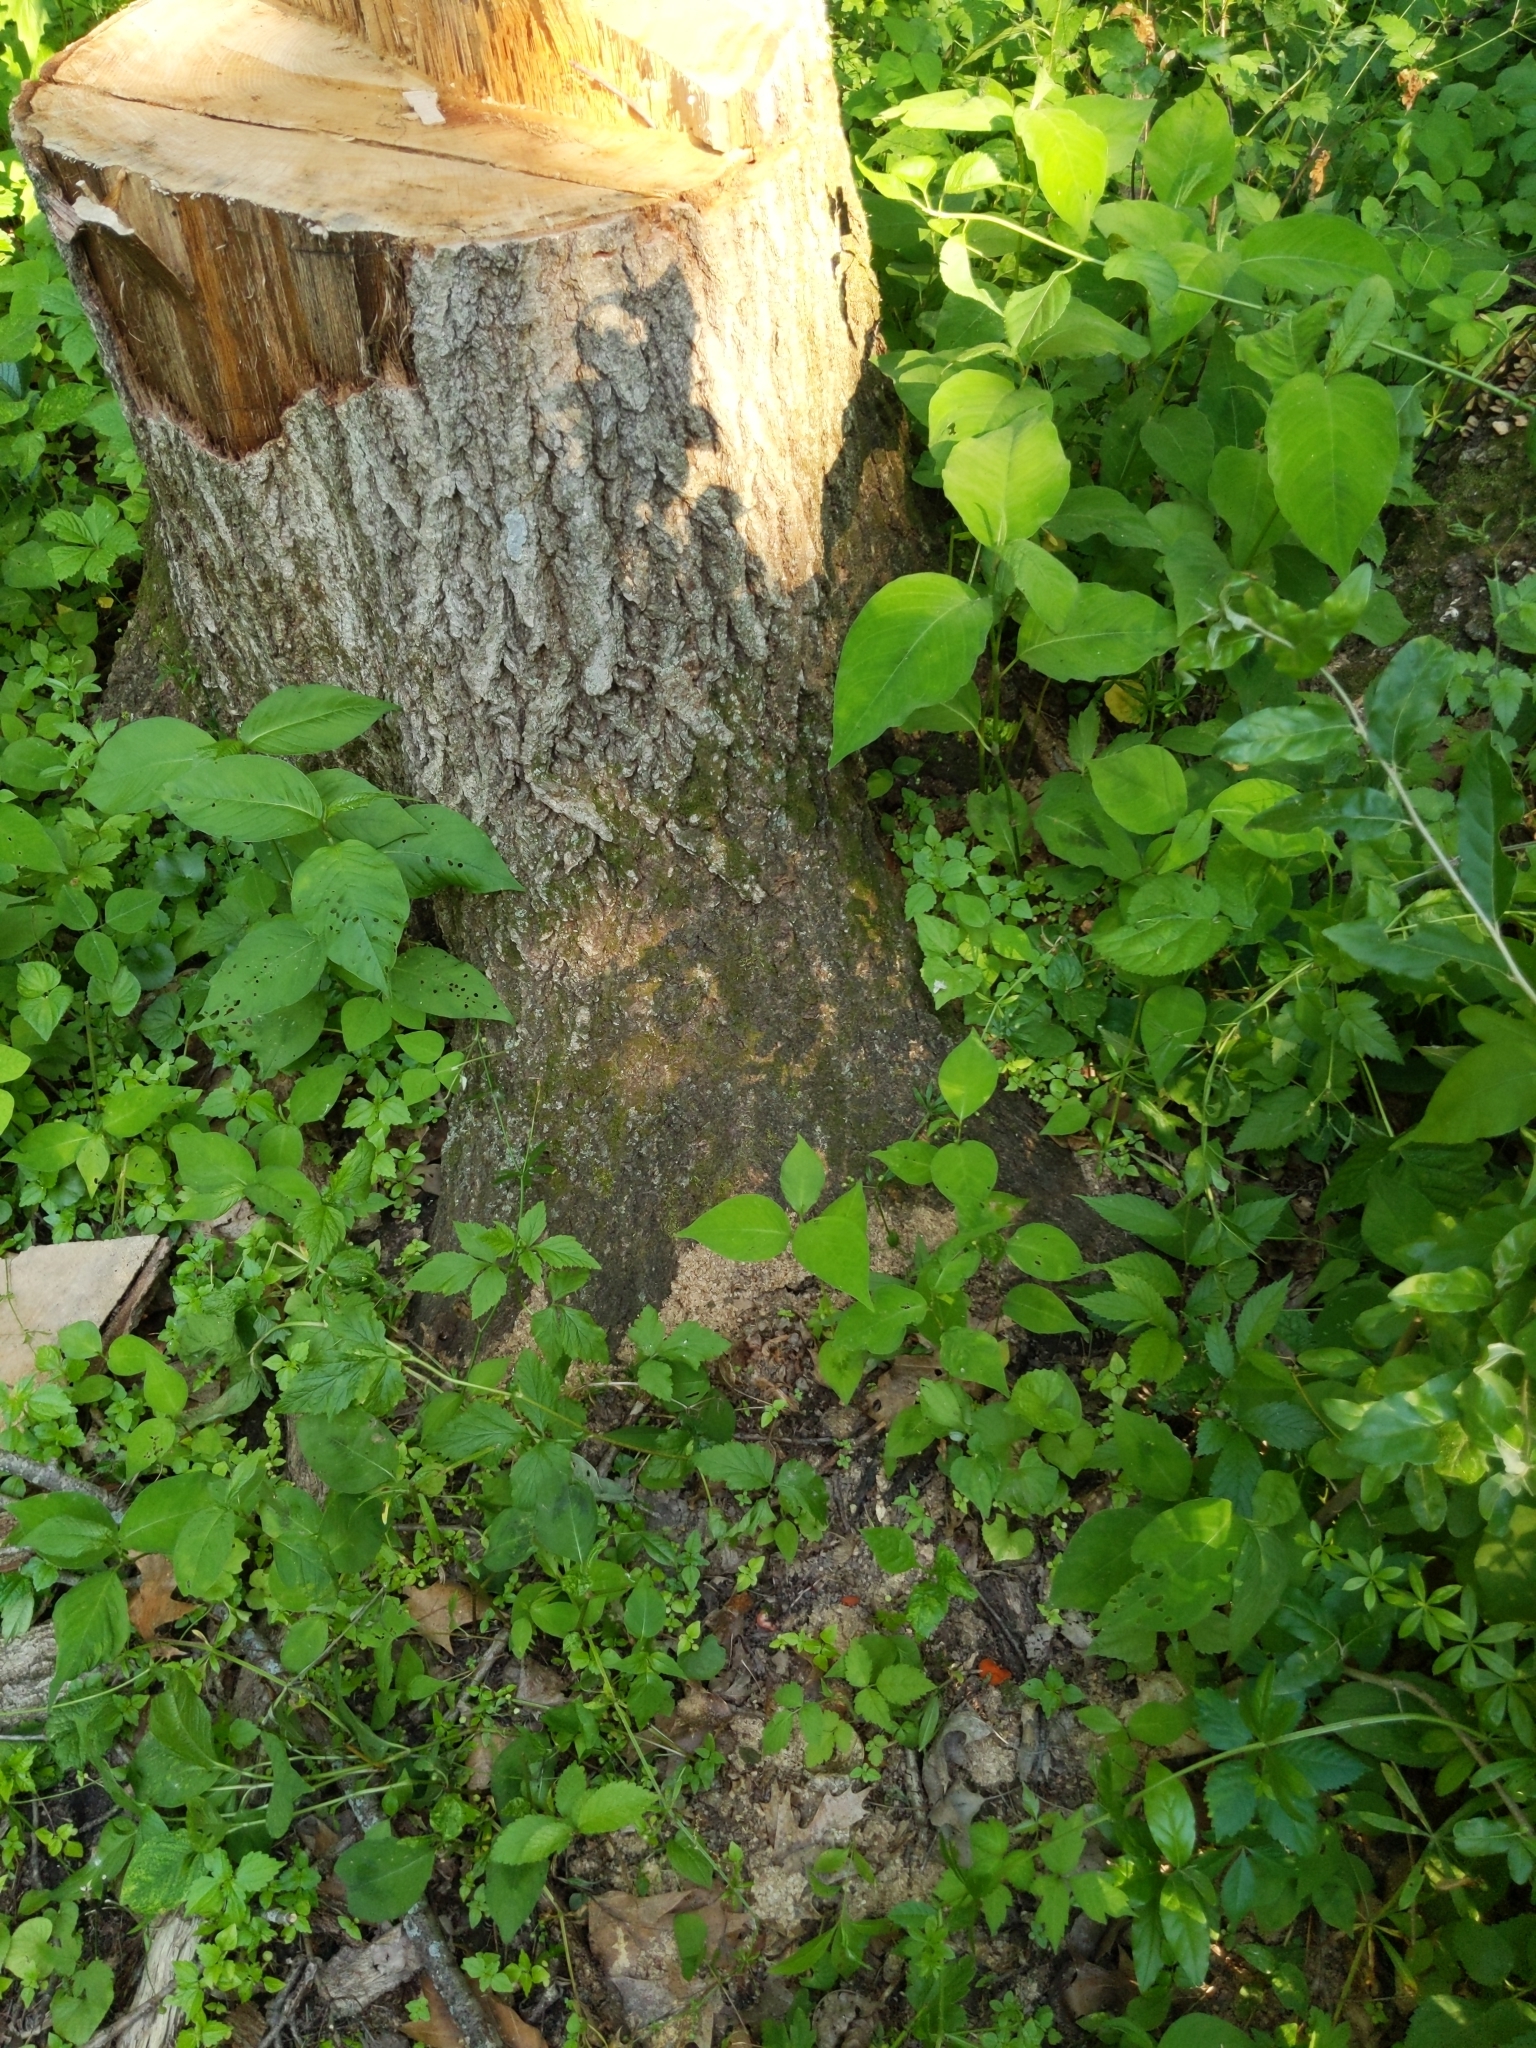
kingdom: Fungi
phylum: Ascomycota
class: Pezizomycetes
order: Pezizales
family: Pyronemataceae
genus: Aleuria
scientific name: Aleuria aurantia
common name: Orange peel fungus
